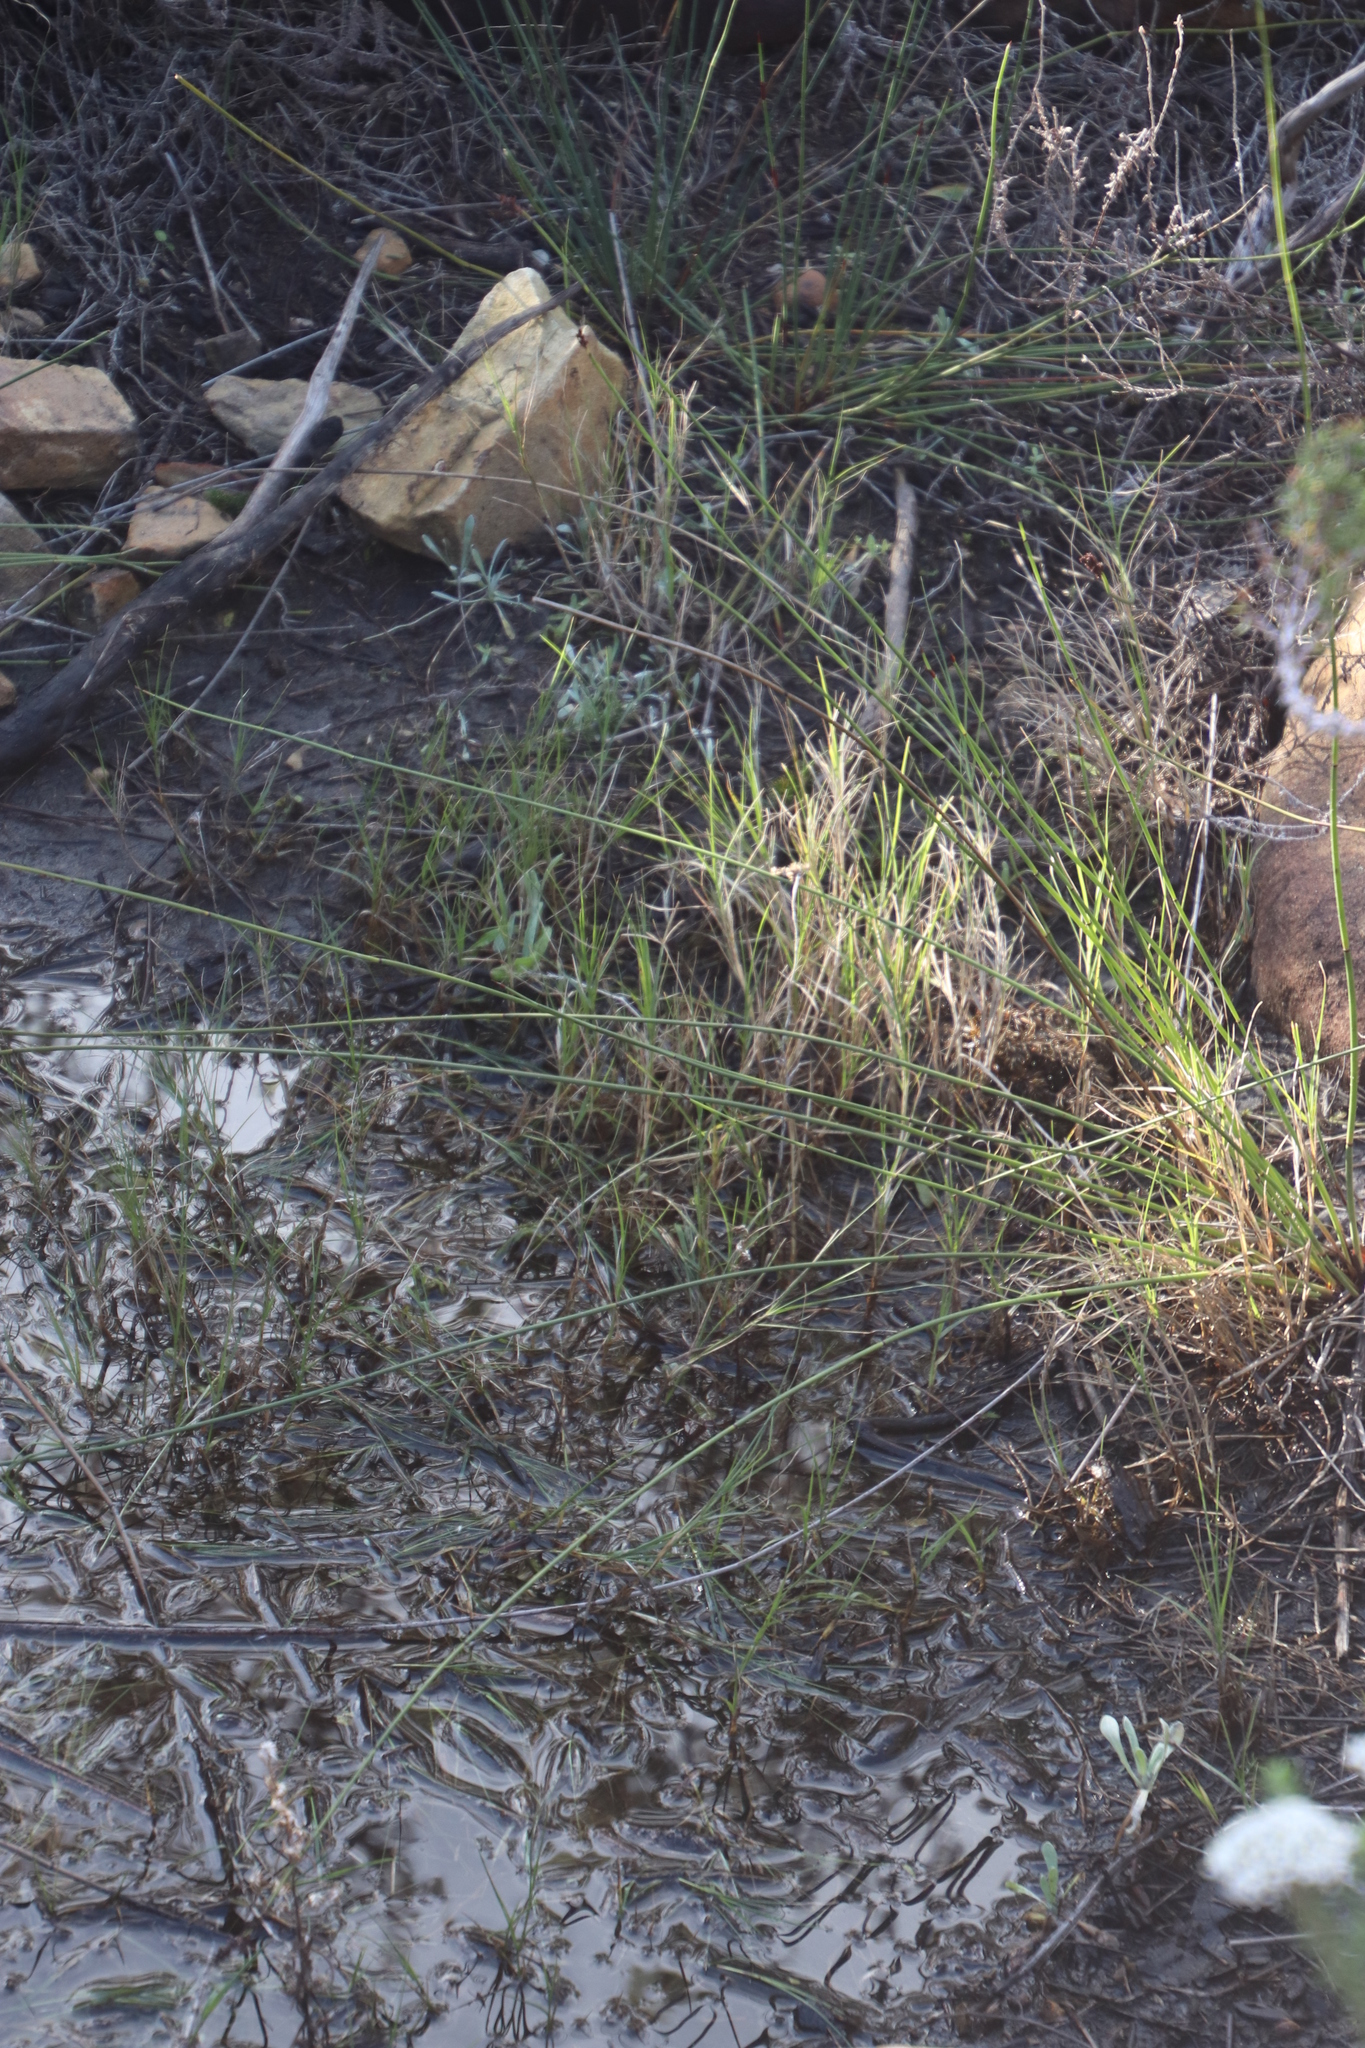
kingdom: Plantae
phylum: Tracheophyta
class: Liliopsida
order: Poales
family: Poaceae
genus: Cynodon
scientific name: Cynodon dactylon
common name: Bermuda grass
